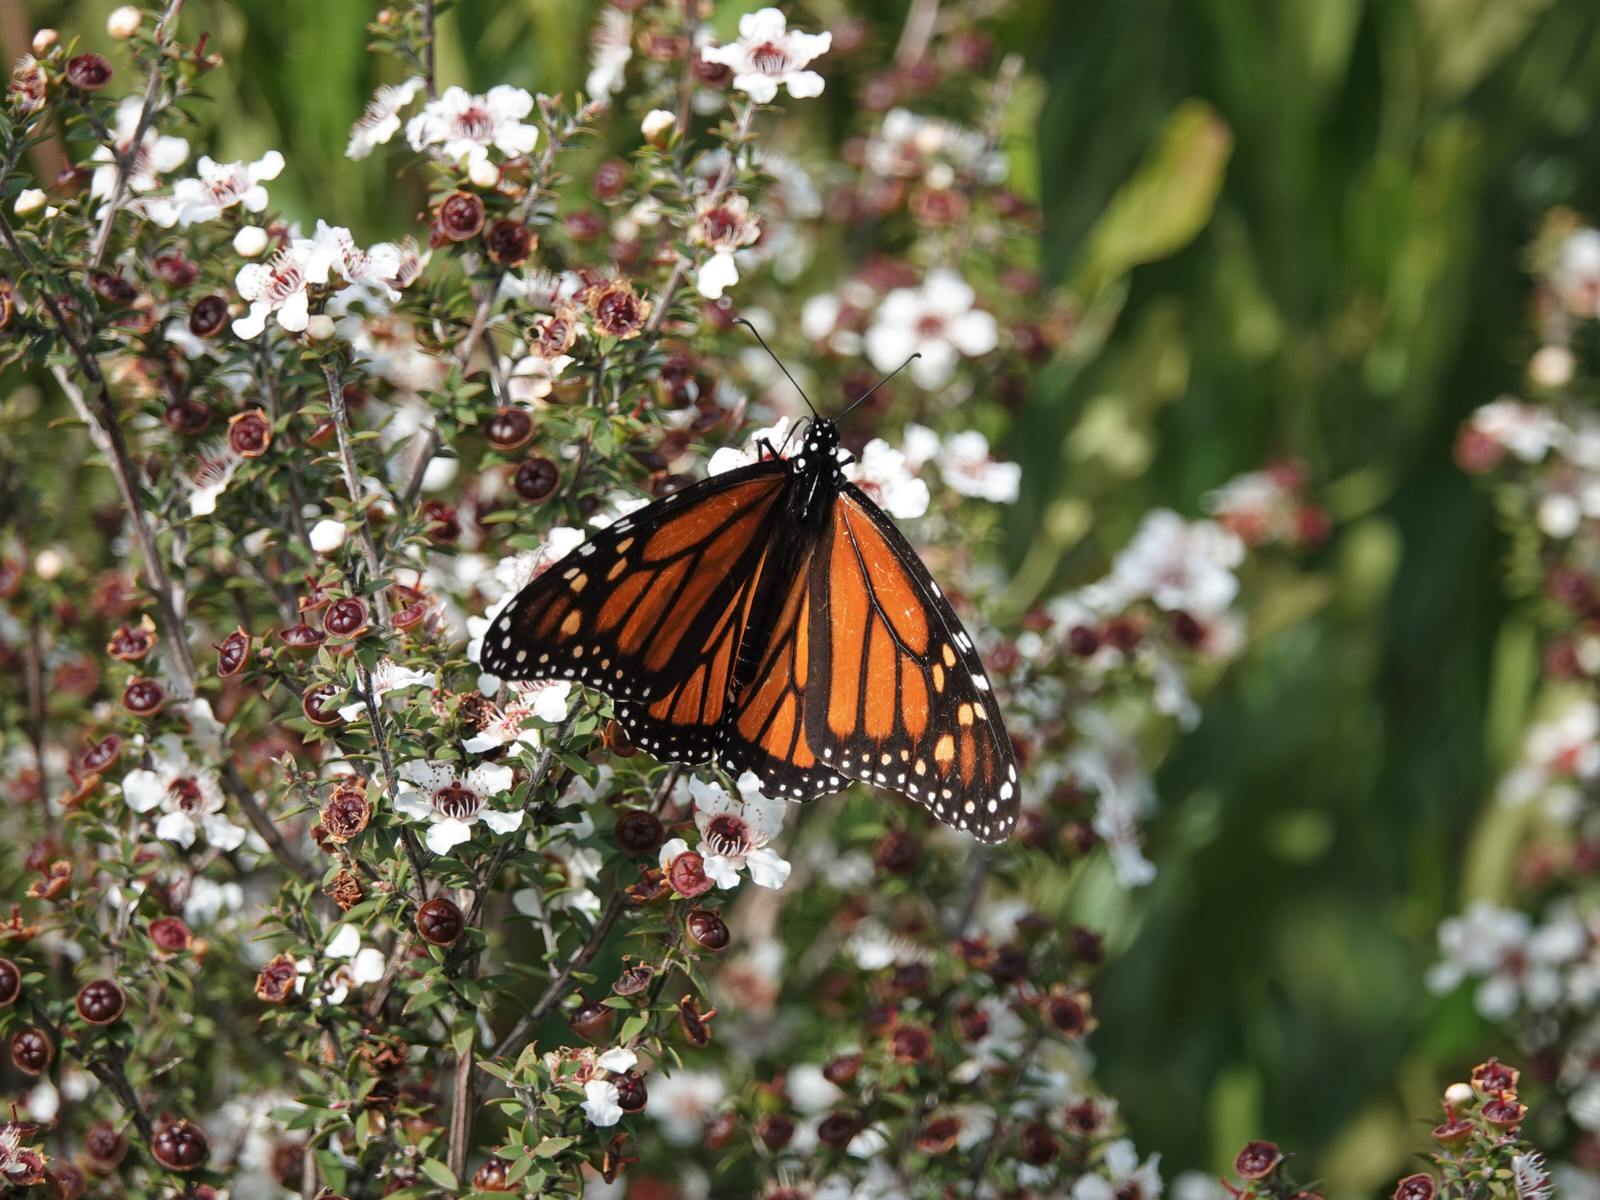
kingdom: Animalia
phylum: Arthropoda
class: Insecta
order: Lepidoptera
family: Nymphalidae
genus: Danaus
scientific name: Danaus plexippus
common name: Monarch
